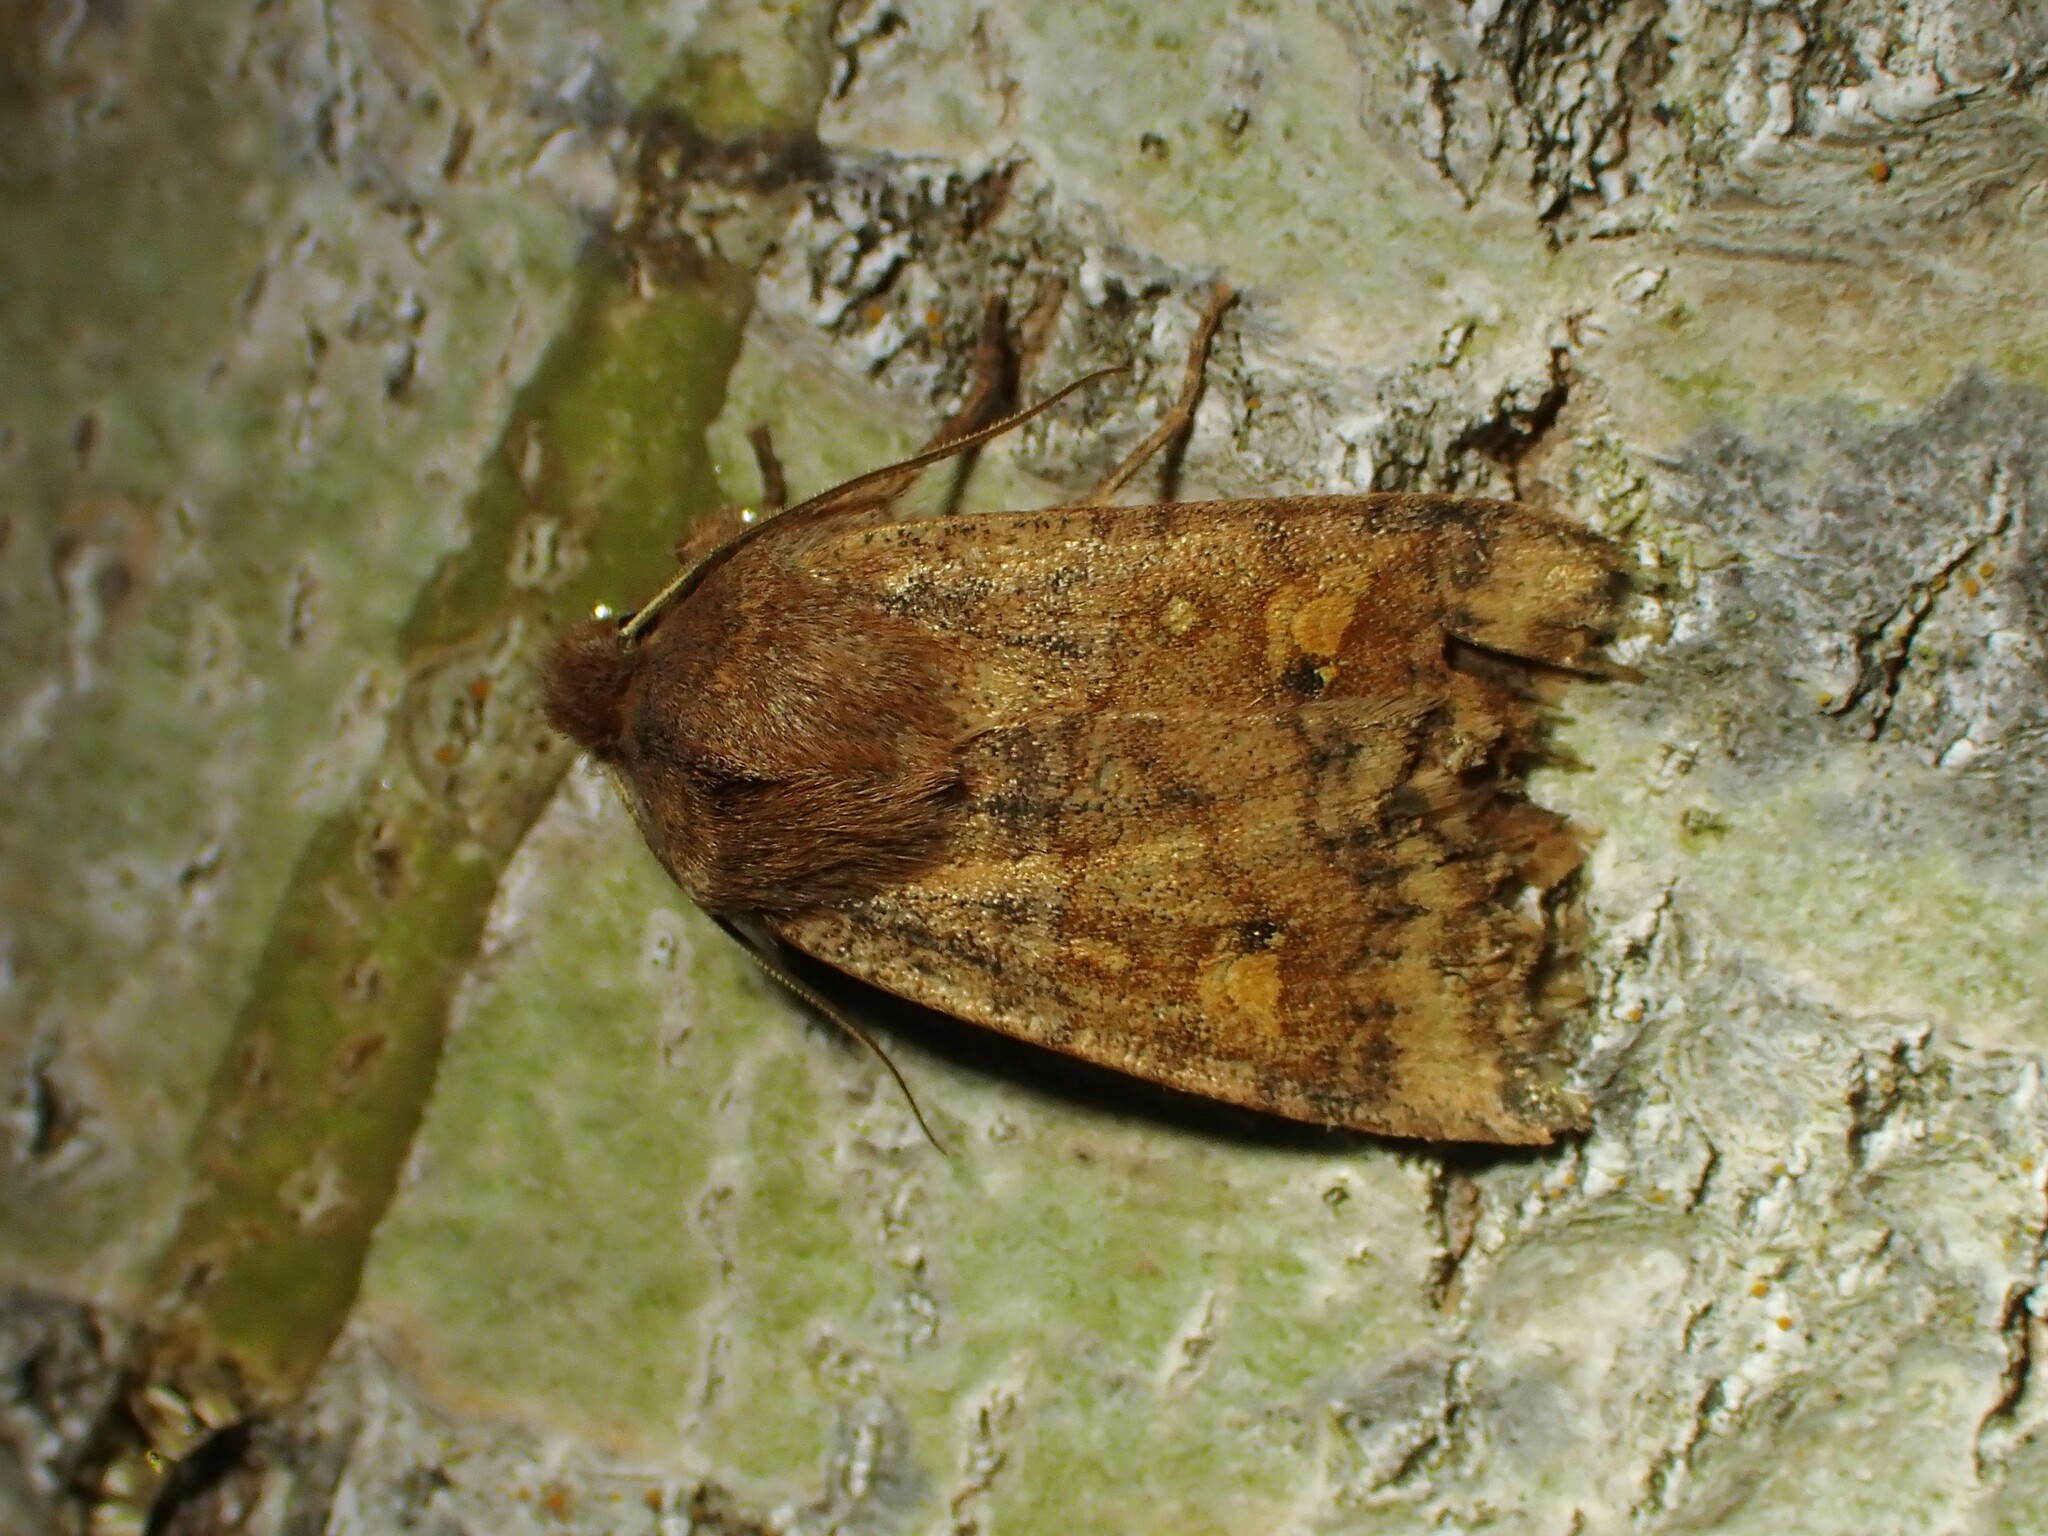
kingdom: Animalia
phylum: Arthropoda
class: Insecta
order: Lepidoptera
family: Noctuidae
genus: Eupsilia
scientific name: Eupsilia tristigmata
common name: Three-spotted sallow
